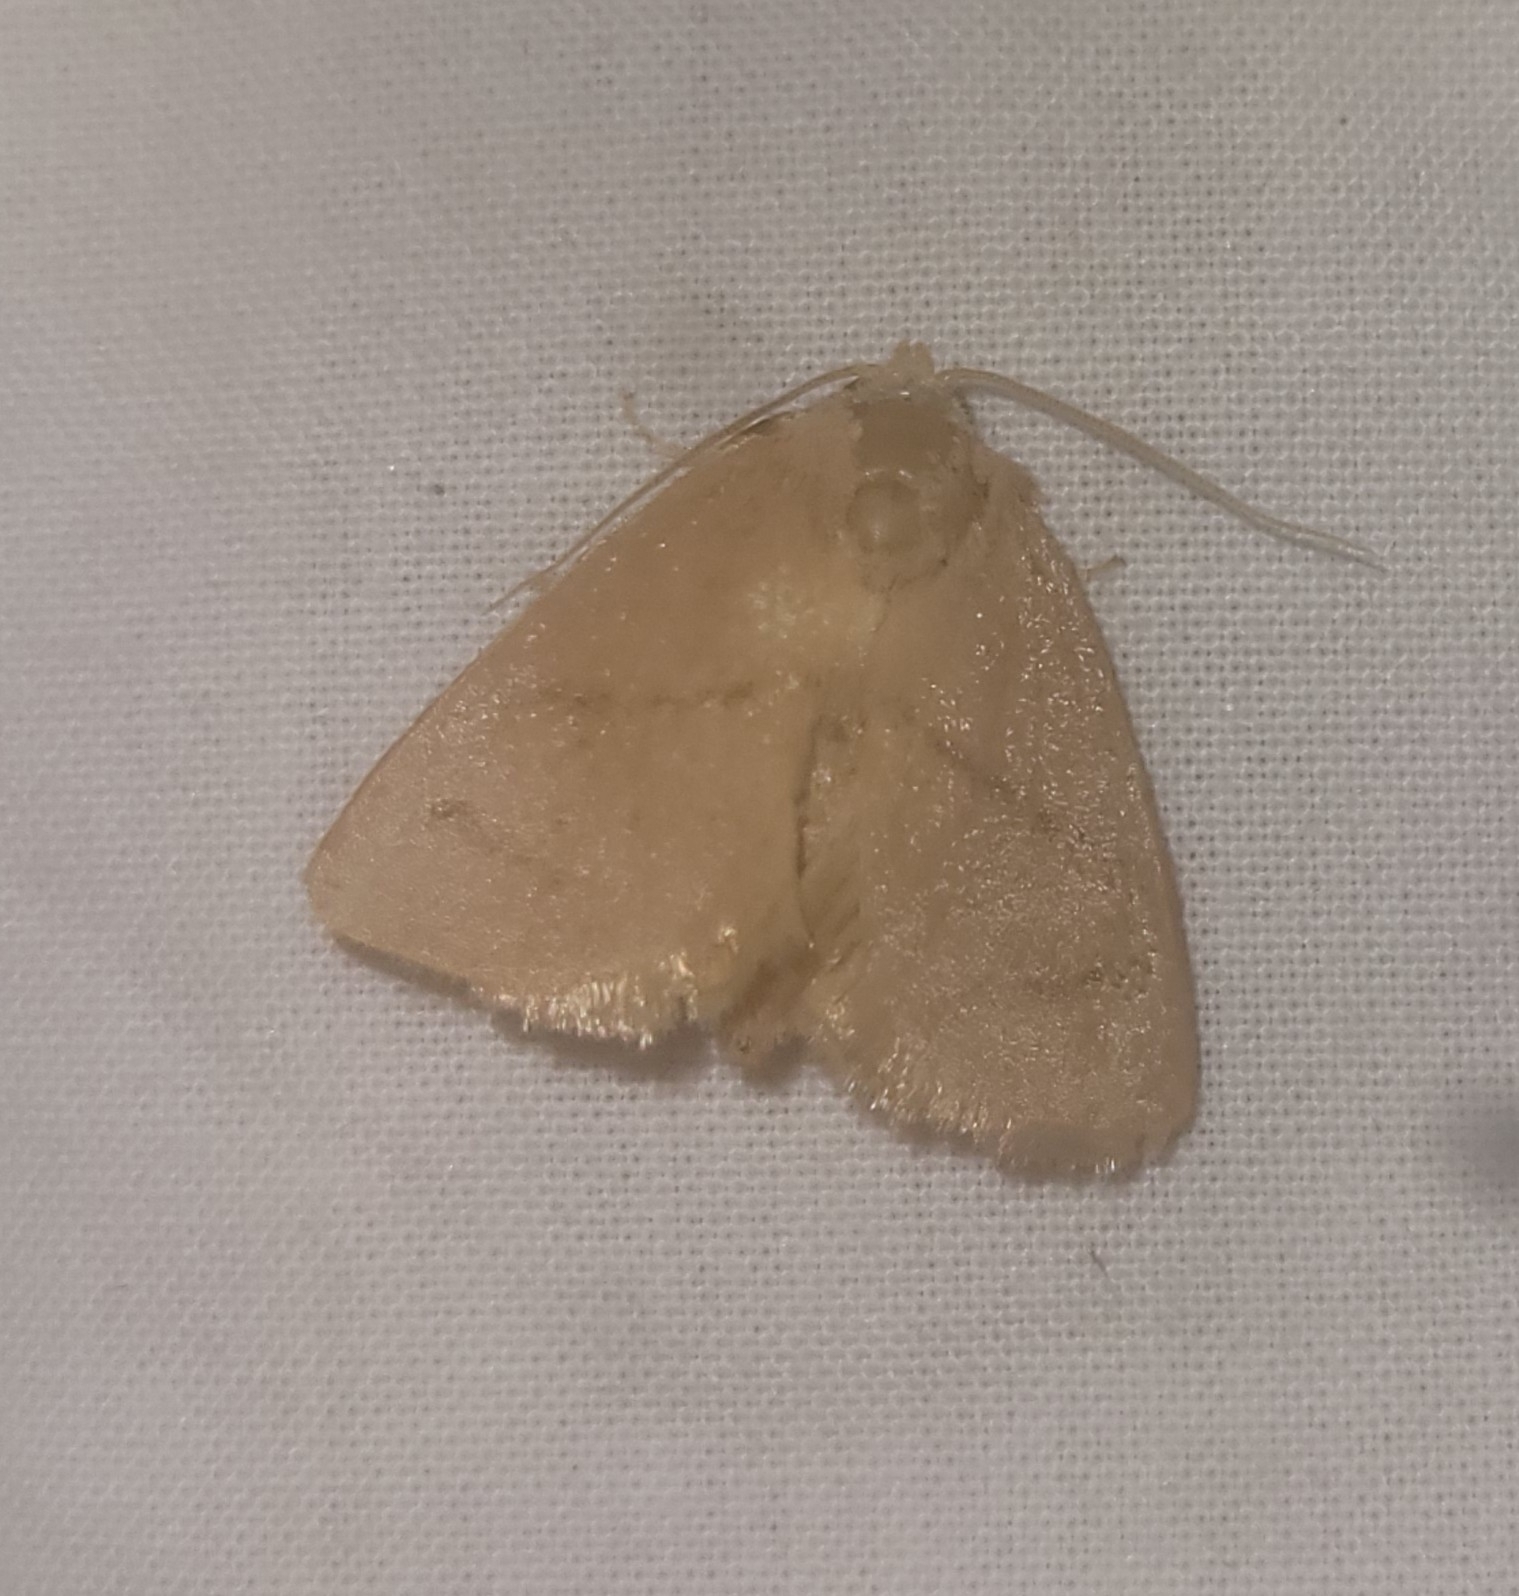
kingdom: Animalia
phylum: Arthropoda
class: Insecta
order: Lepidoptera
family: Limacodidae
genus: Hoyosia
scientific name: Hoyosia codeti
